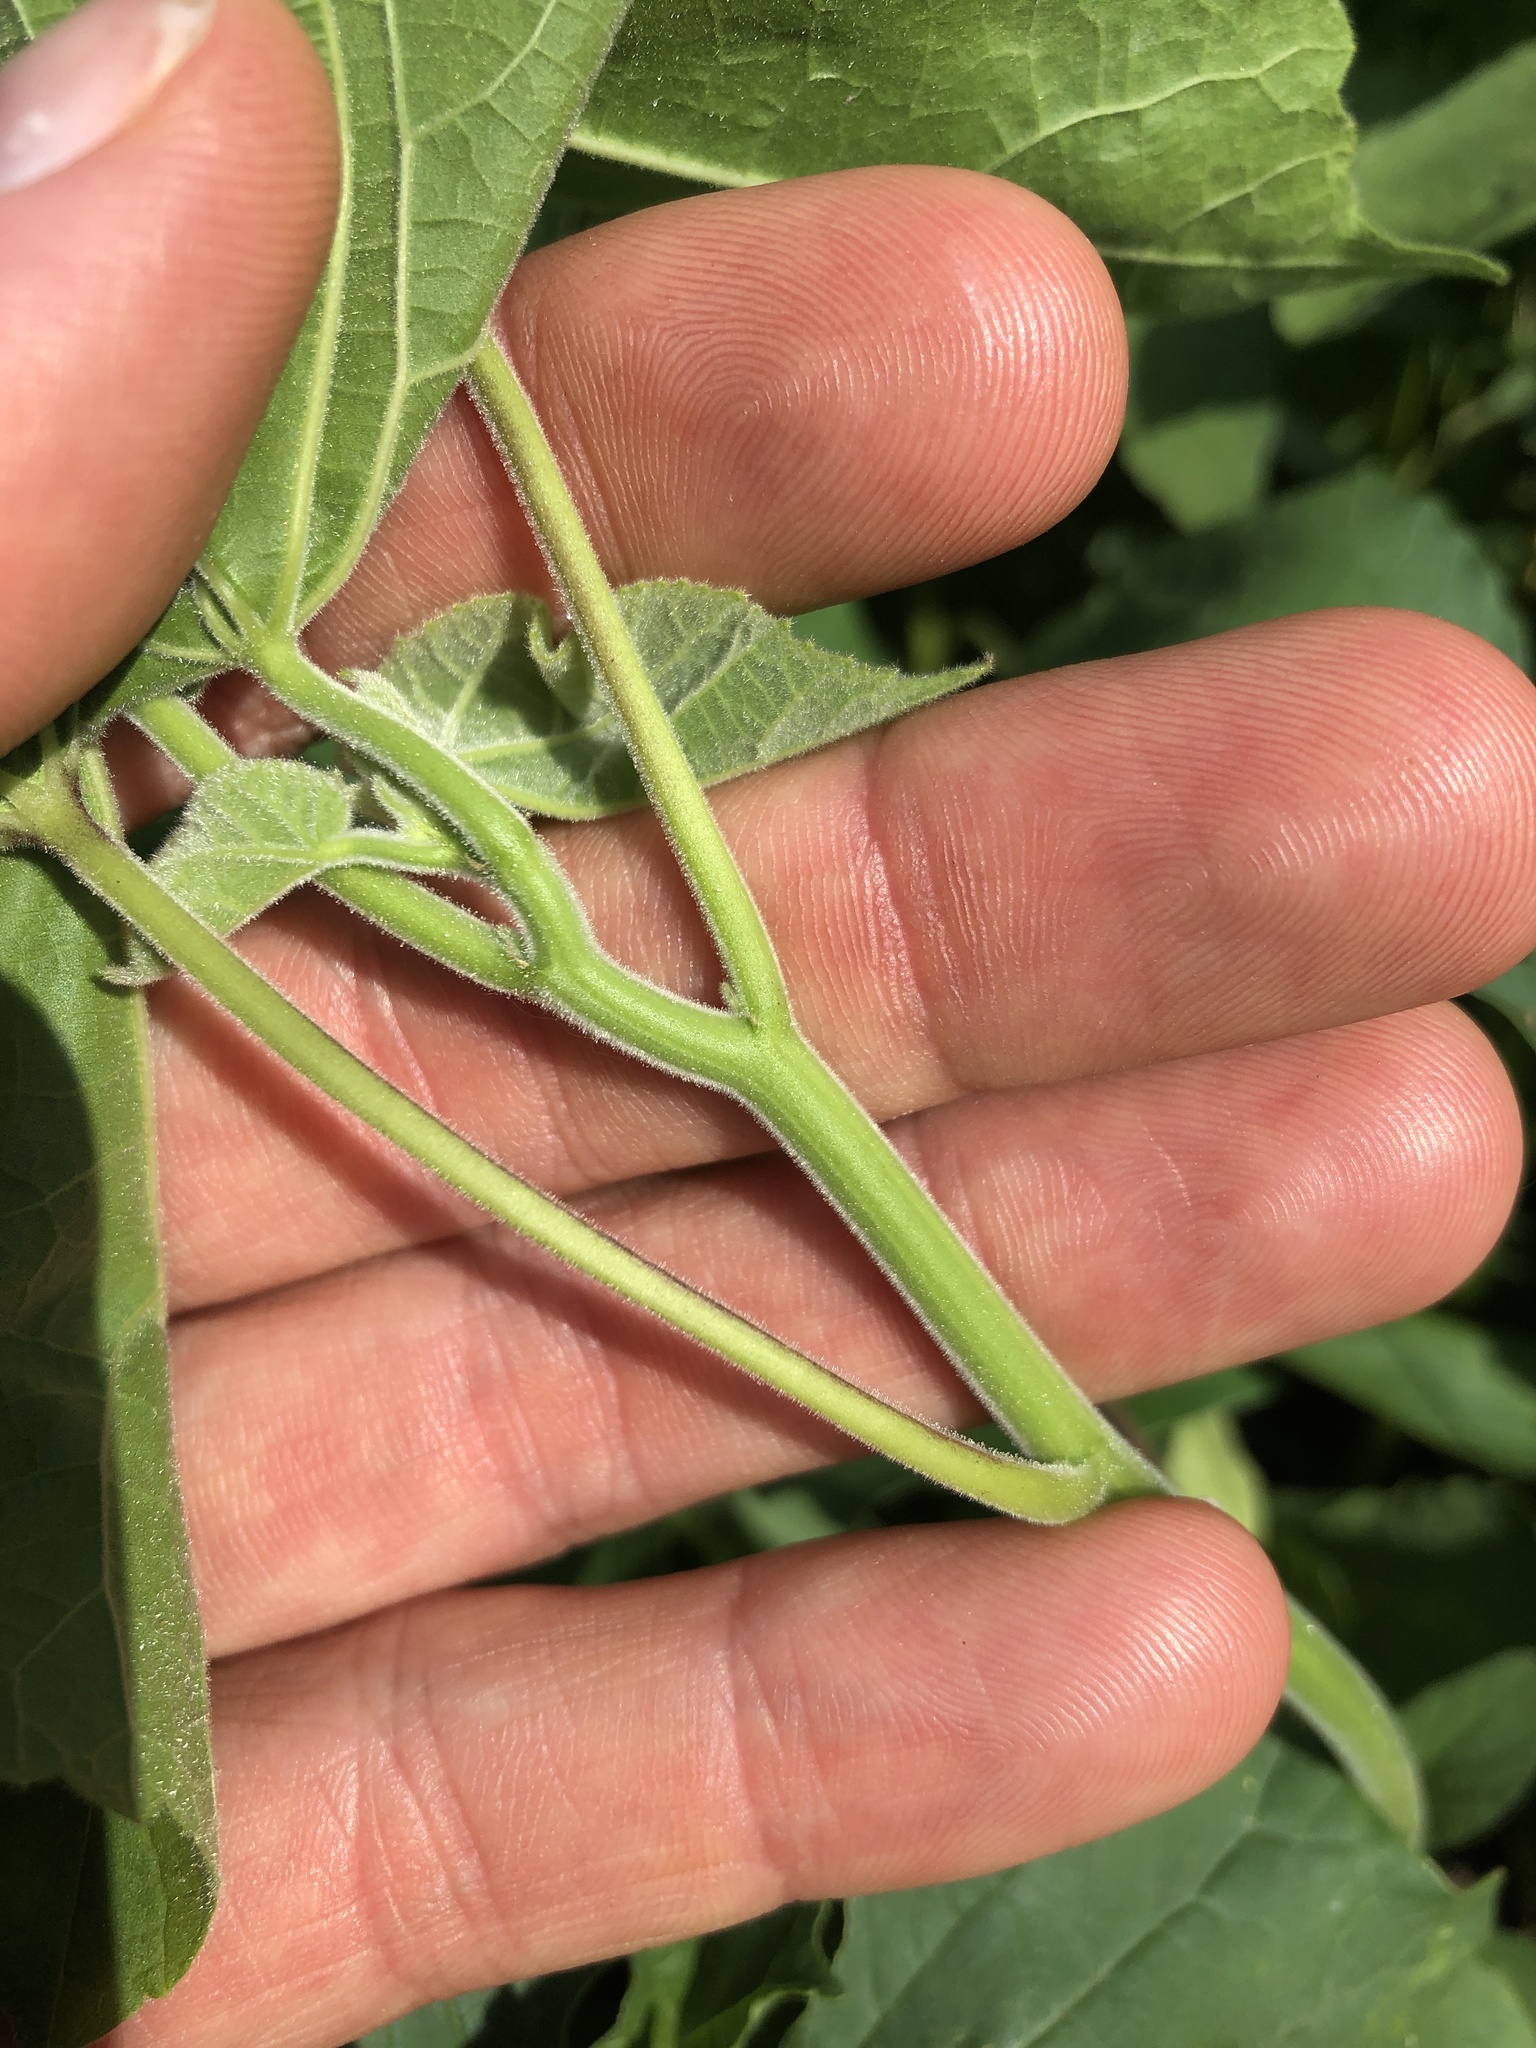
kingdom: Plantae
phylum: Tracheophyta
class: Magnoliopsida
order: Malvales
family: Malvaceae
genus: Abutilon
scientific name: Abutilon theophrasti
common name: Velvetleaf
